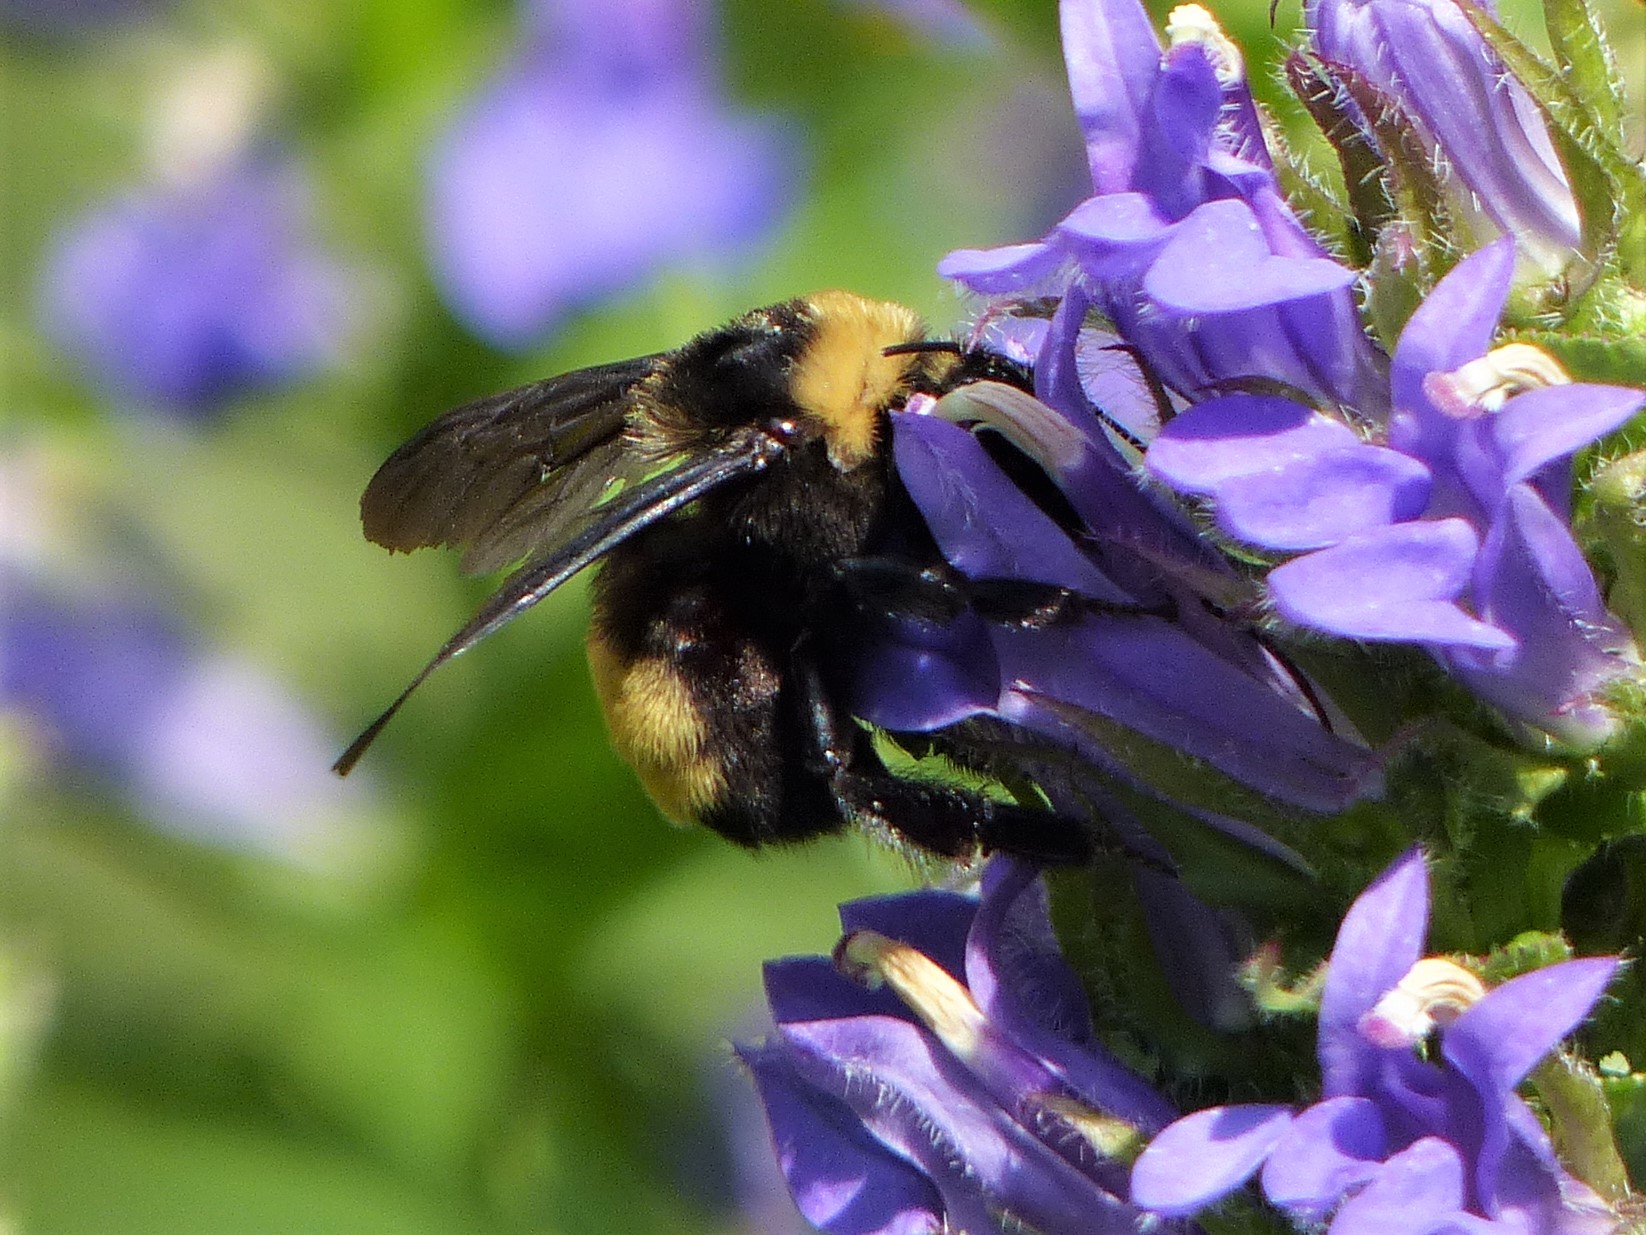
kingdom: Animalia
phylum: Arthropoda
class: Insecta
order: Hymenoptera
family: Apidae
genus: Bombus
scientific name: Bombus auricomus
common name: Black and gold bumble bee
